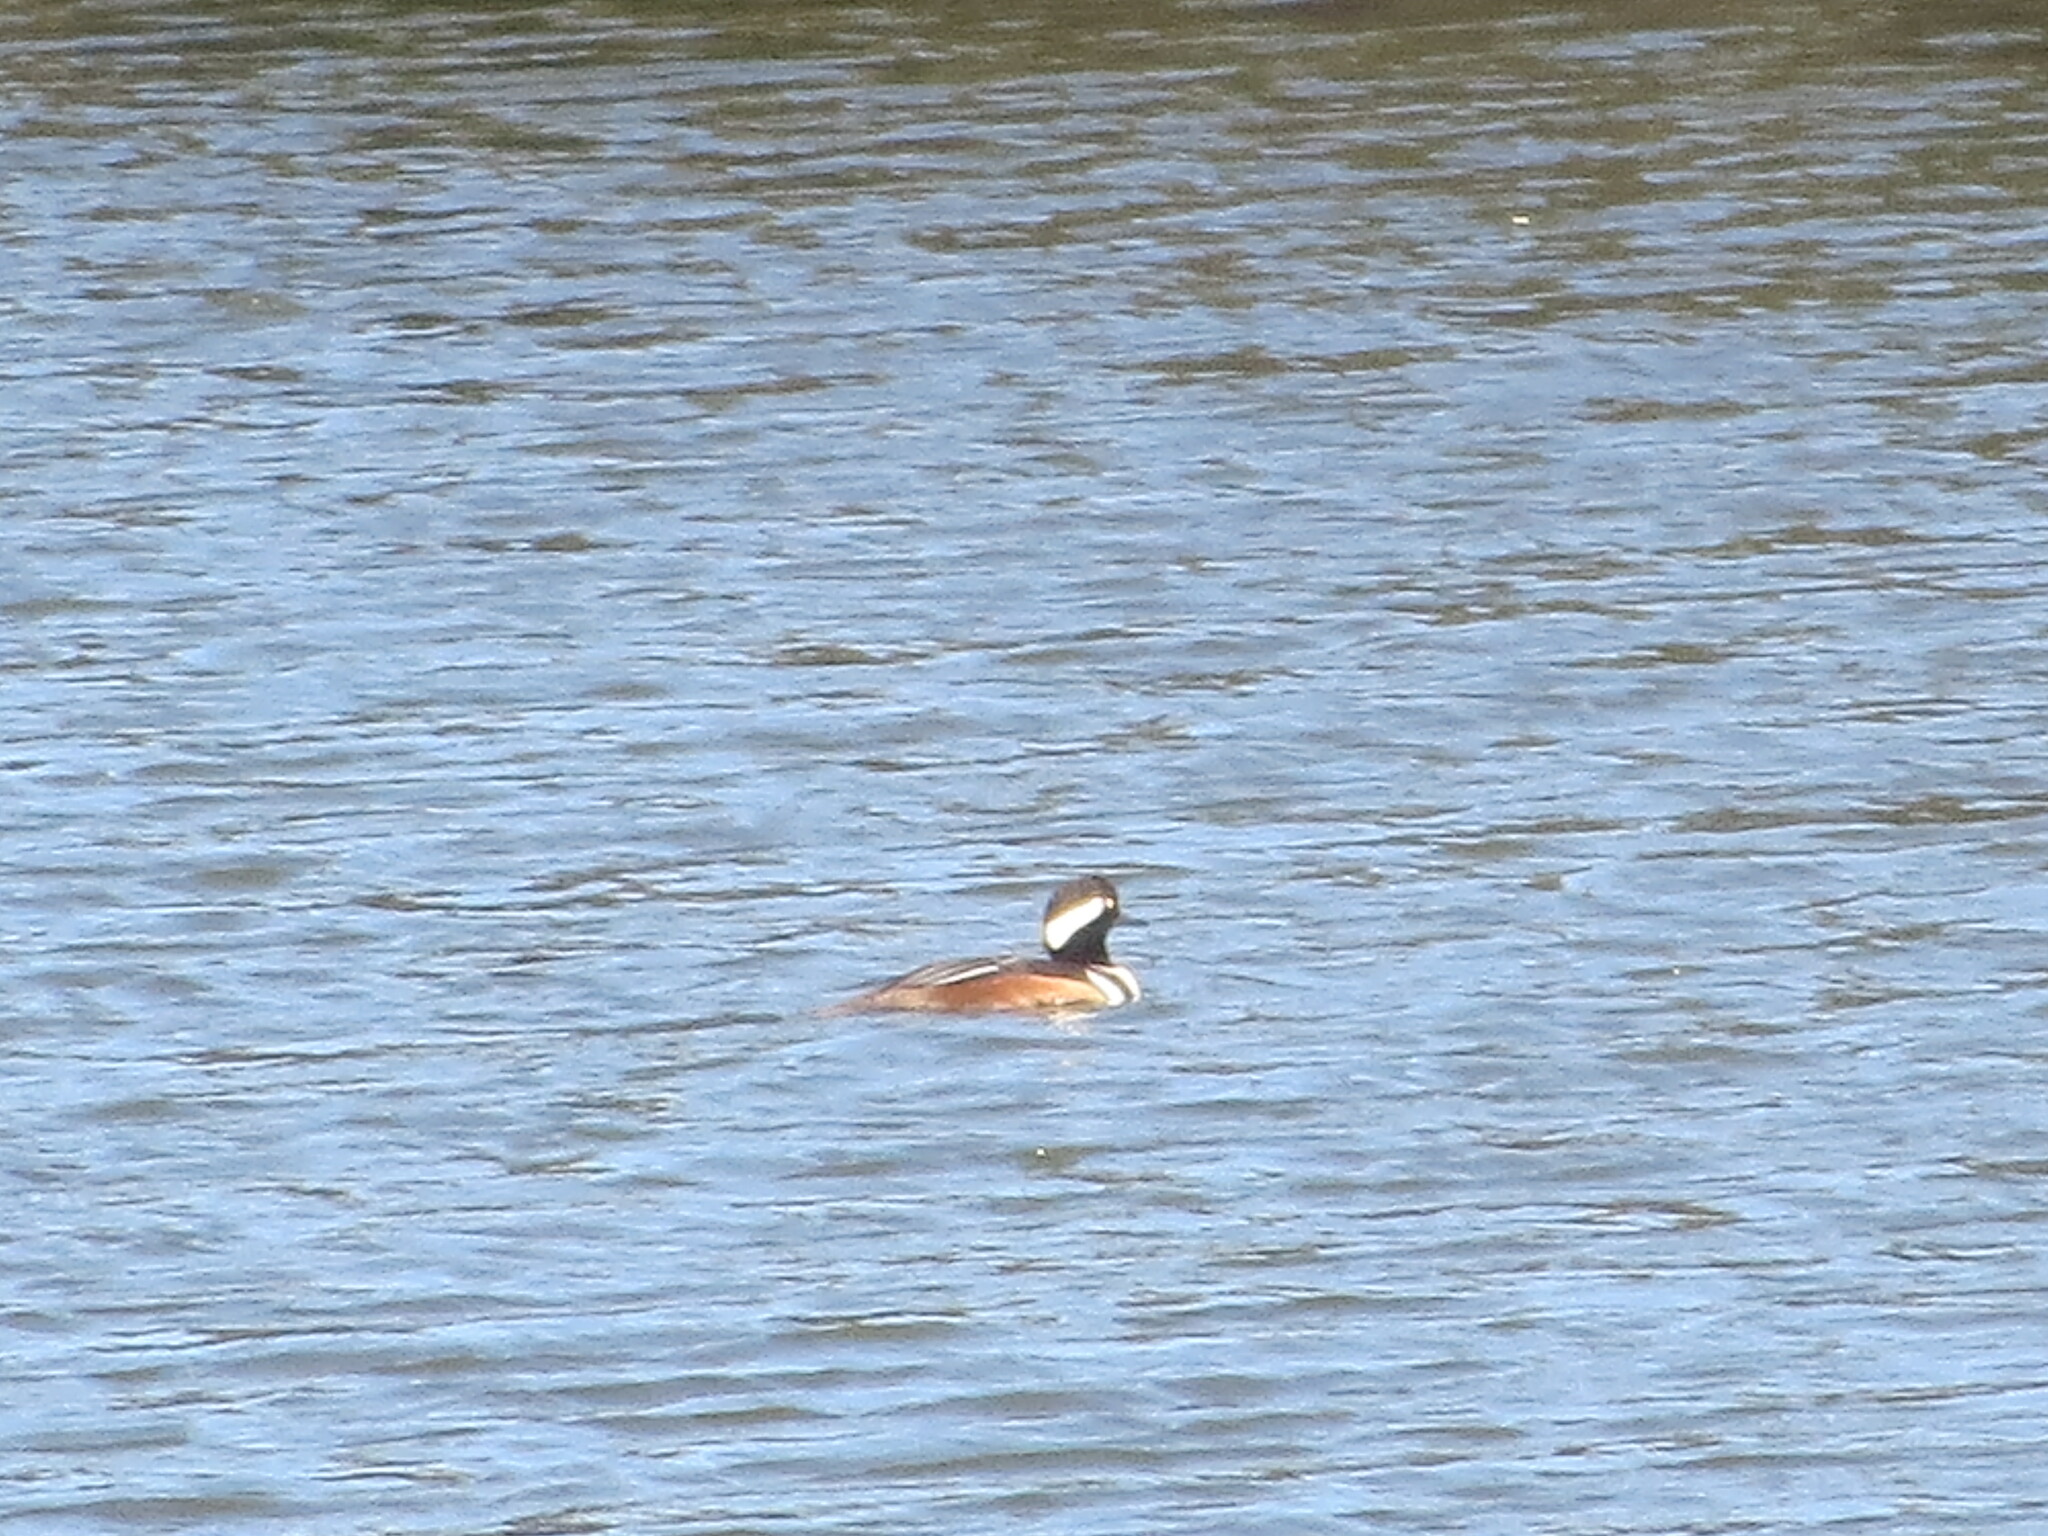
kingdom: Animalia
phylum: Chordata
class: Aves
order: Anseriformes
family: Anatidae
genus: Lophodytes
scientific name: Lophodytes cucullatus
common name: Hooded merganser
